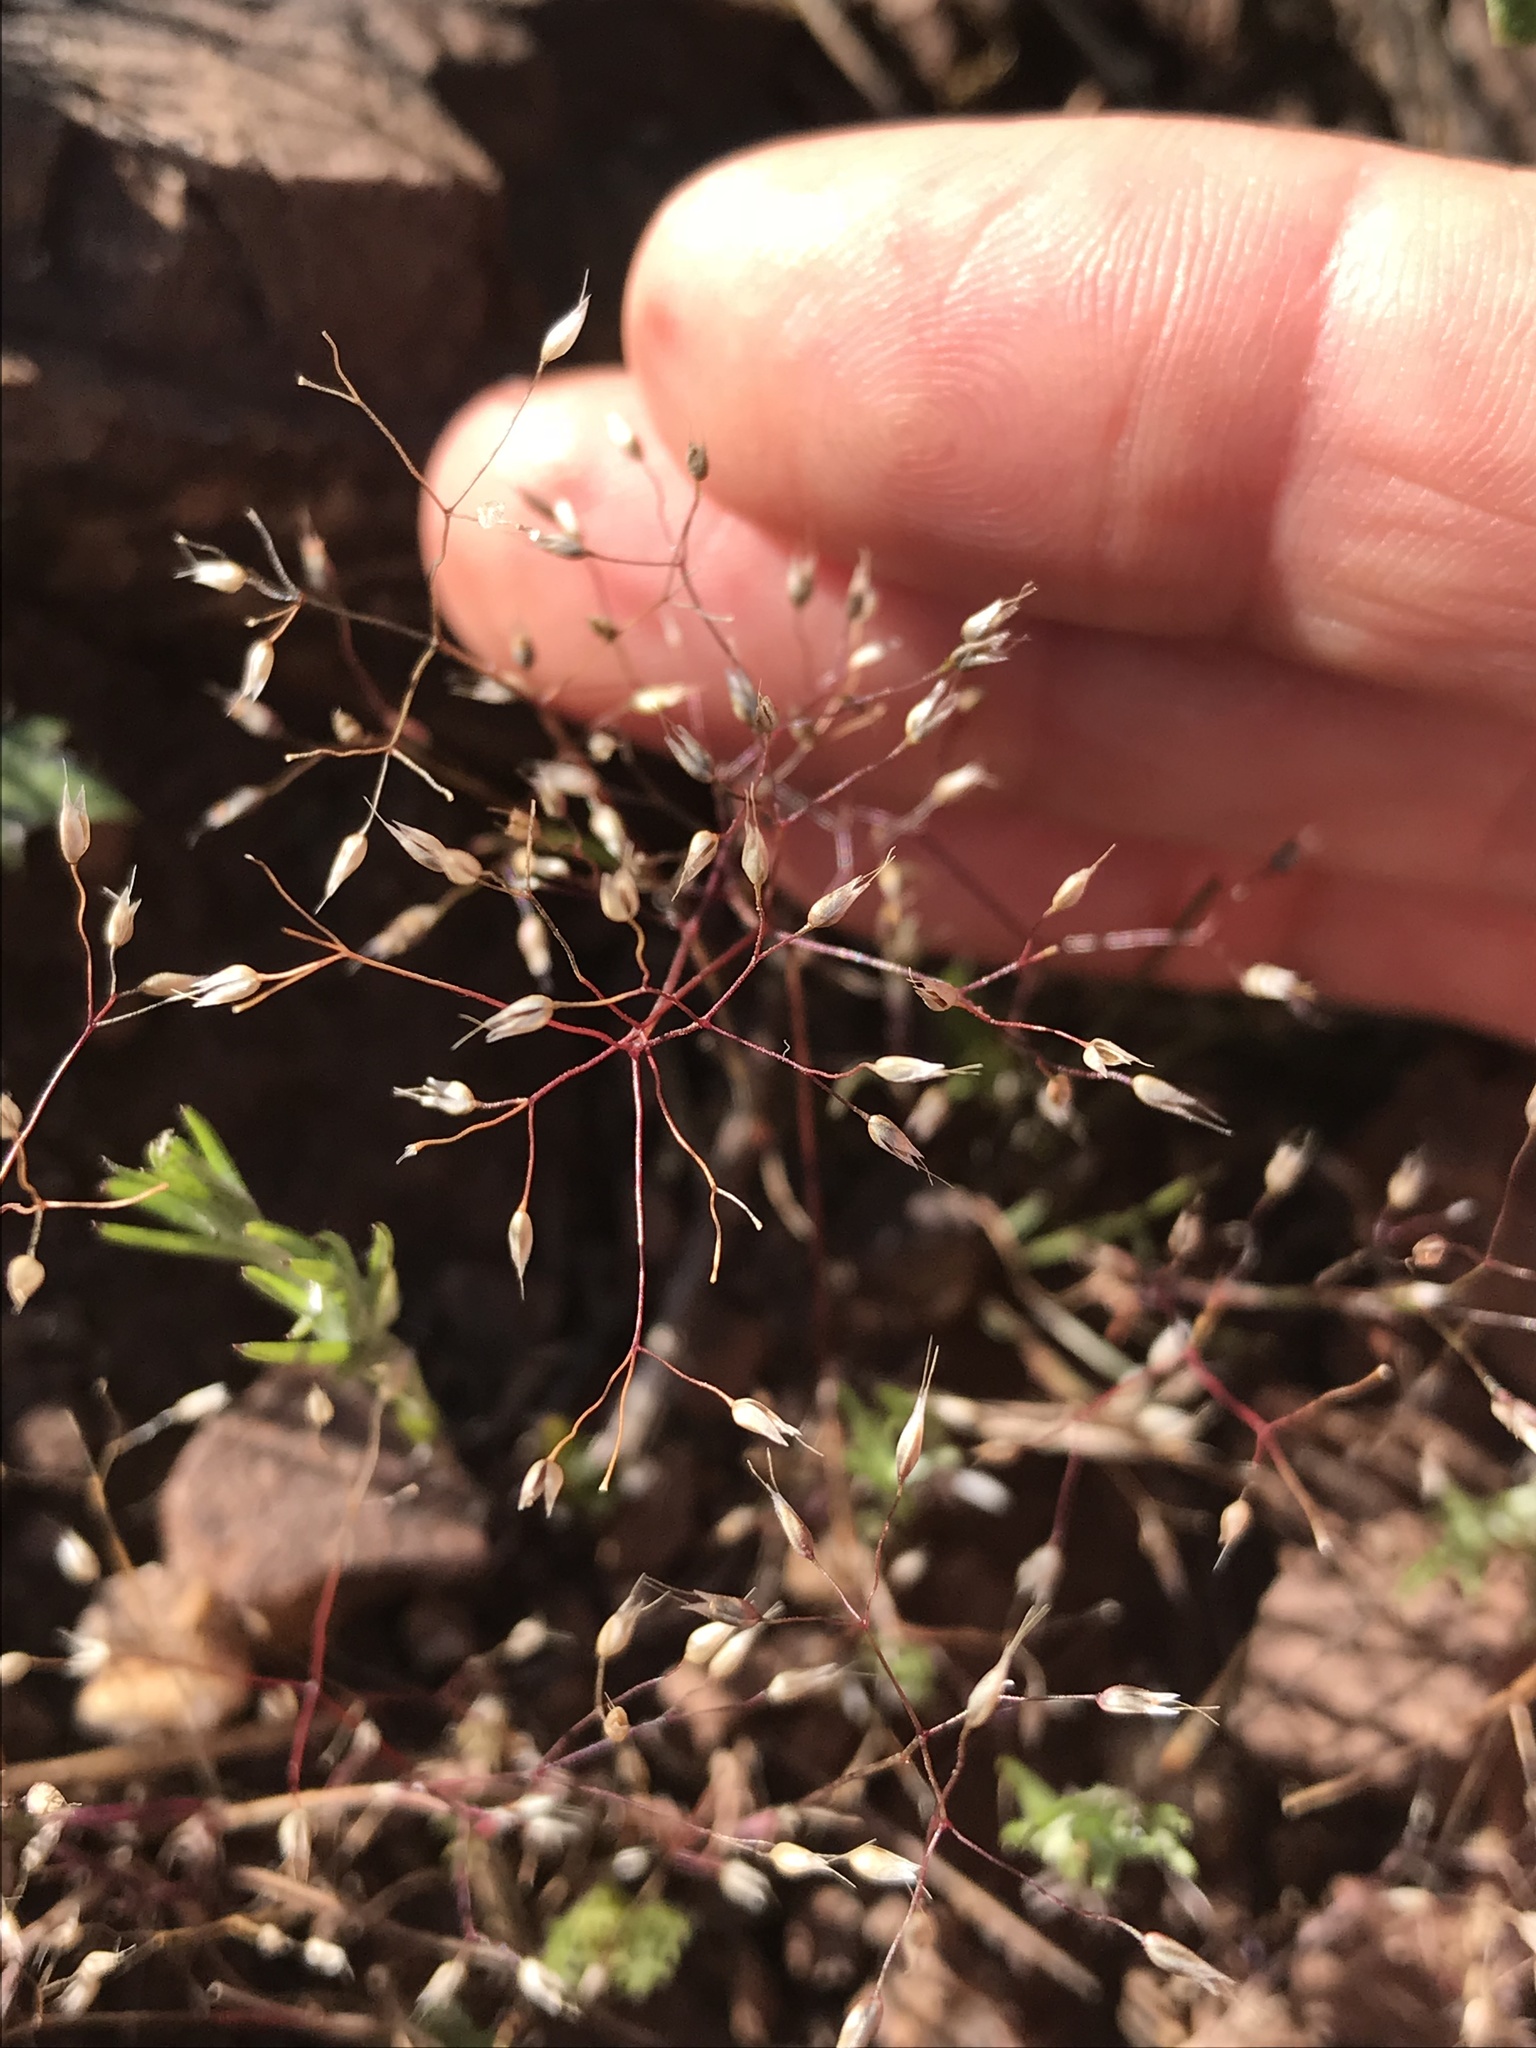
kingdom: Plantae
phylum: Tracheophyta
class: Liliopsida
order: Poales
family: Poaceae
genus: Aira
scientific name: Aira caryophyllea
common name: Silver hairgrass
